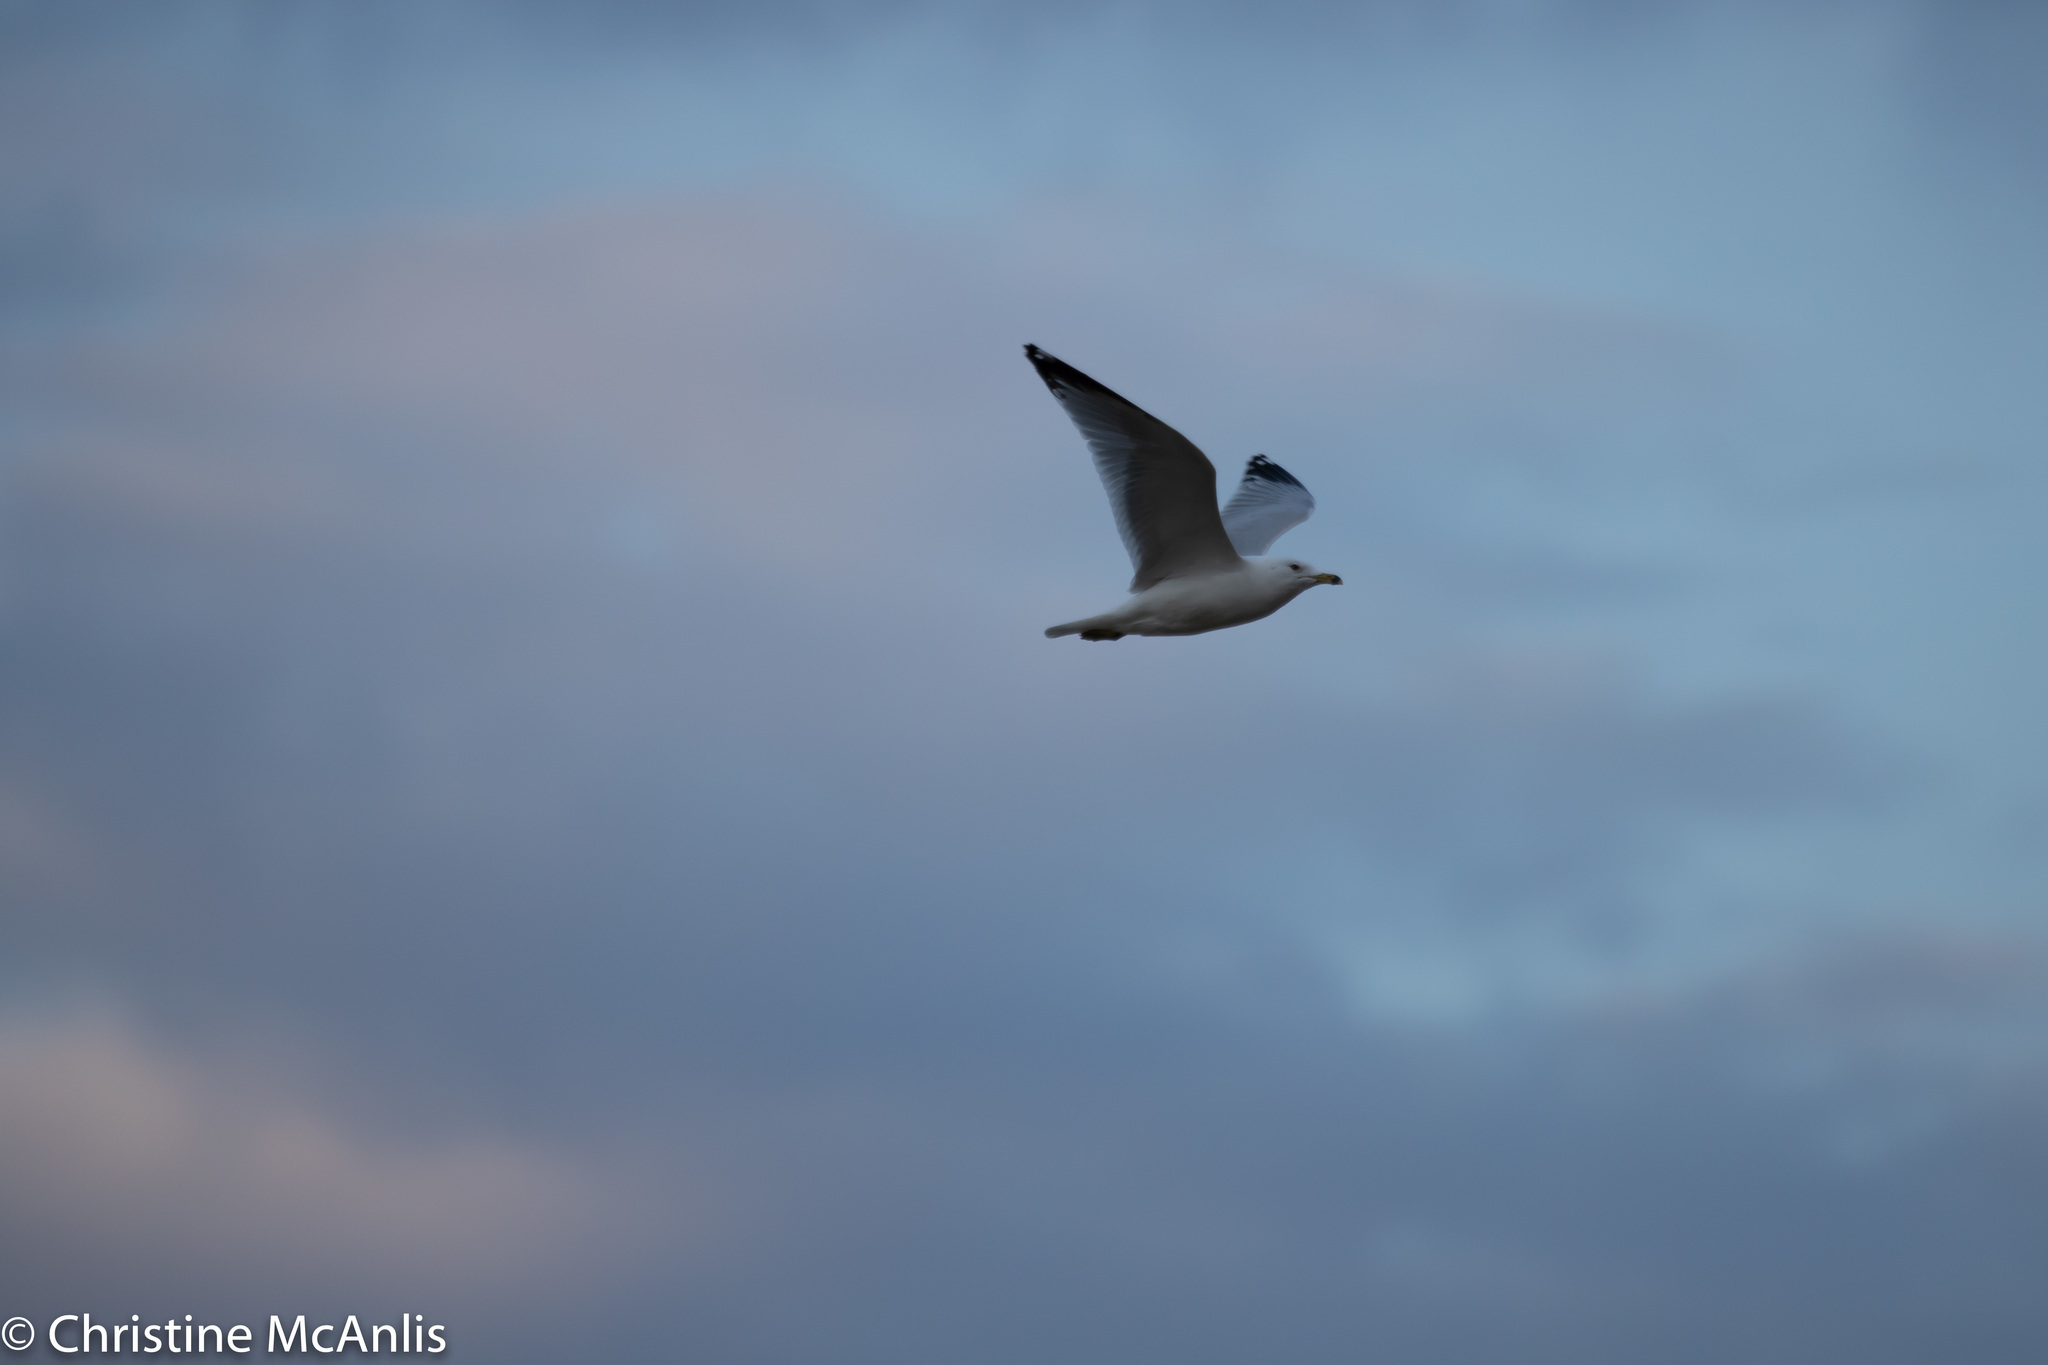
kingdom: Animalia
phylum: Chordata
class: Aves
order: Charadriiformes
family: Laridae
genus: Larus
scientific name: Larus delawarensis
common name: Ring-billed gull
